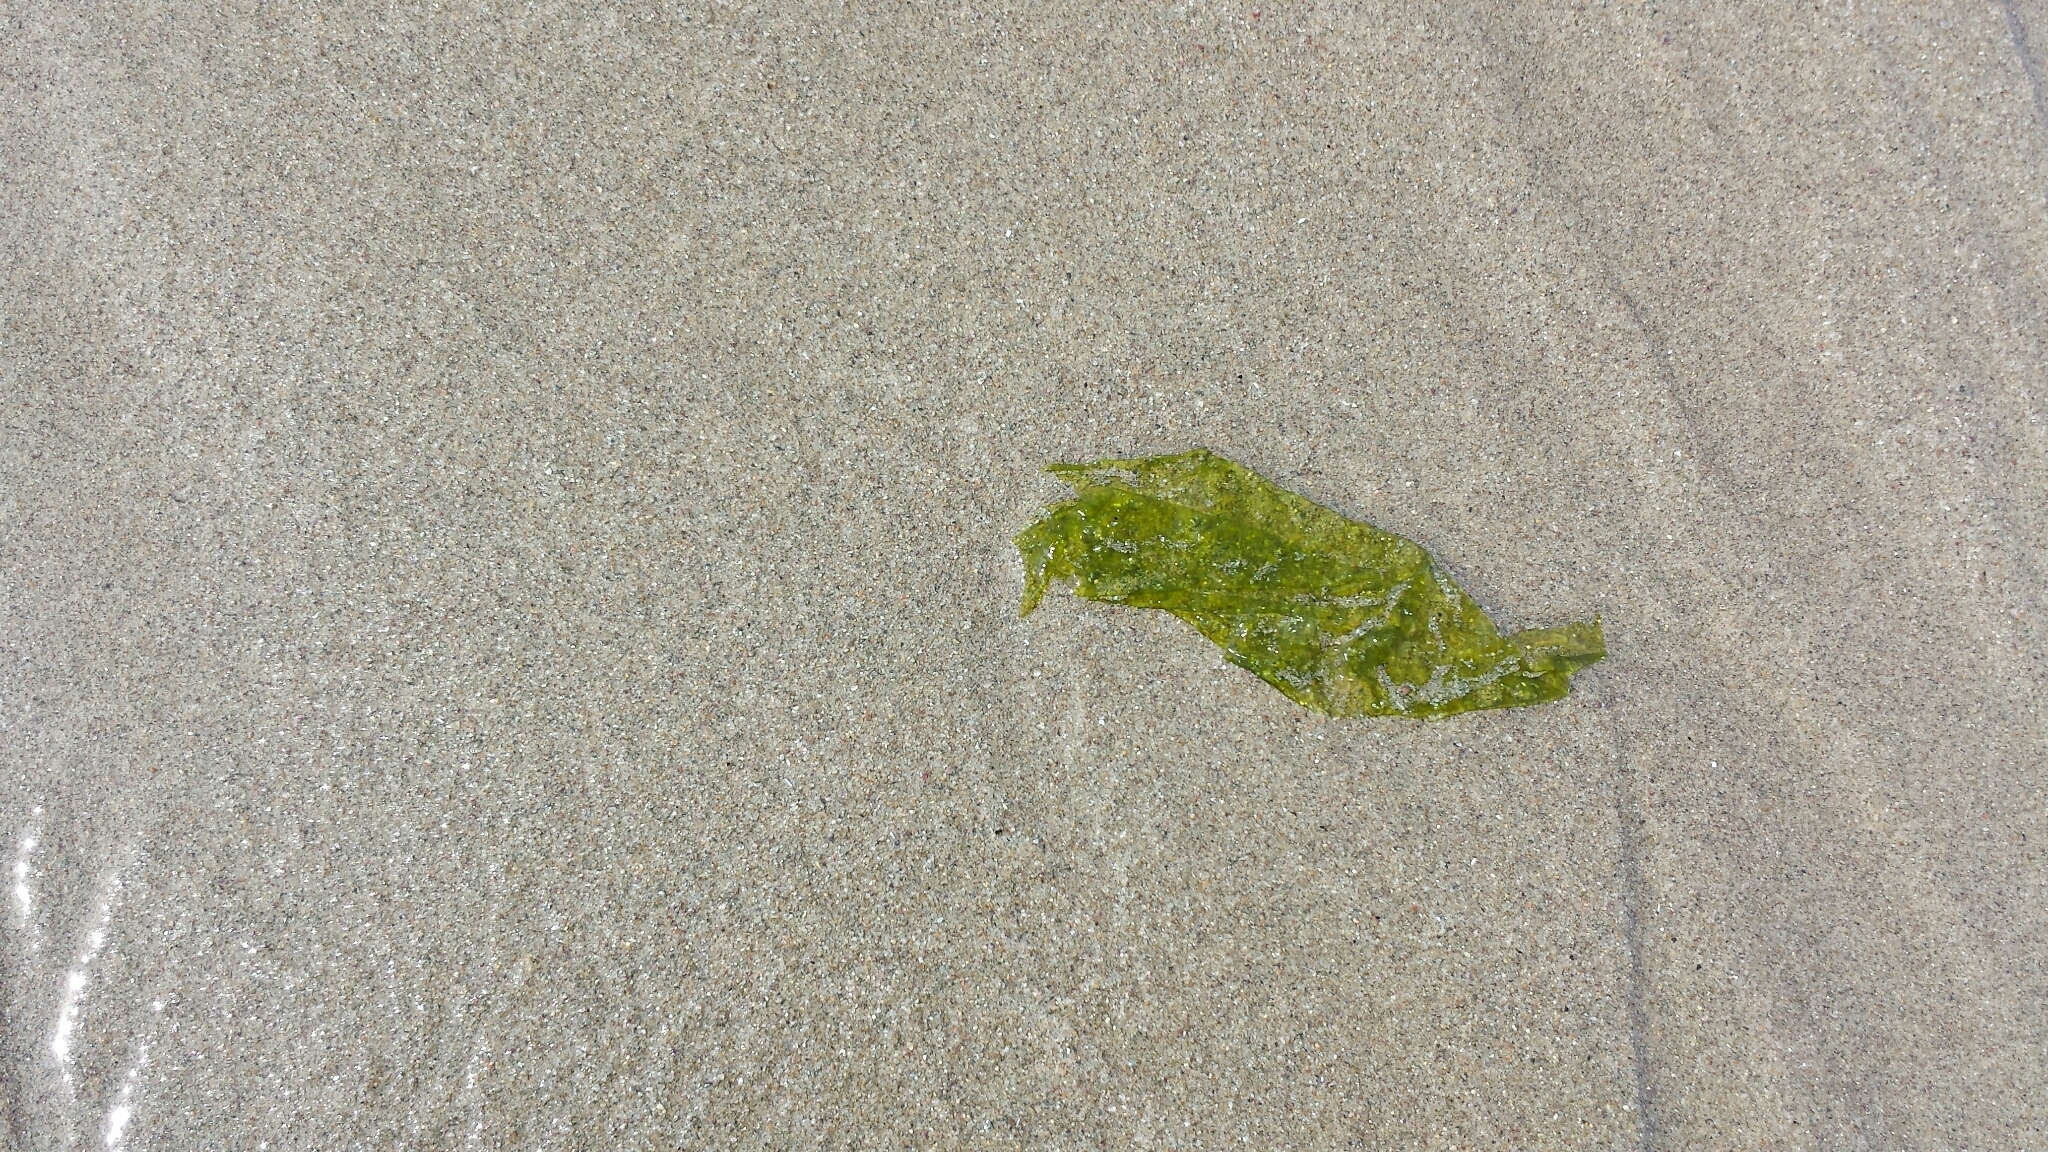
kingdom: Plantae
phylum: Chlorophyta
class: Ulvophyceae
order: Ulvales
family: Ulvaceae
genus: Ulva
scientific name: Ulva lactuca
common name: Sea lettuce
